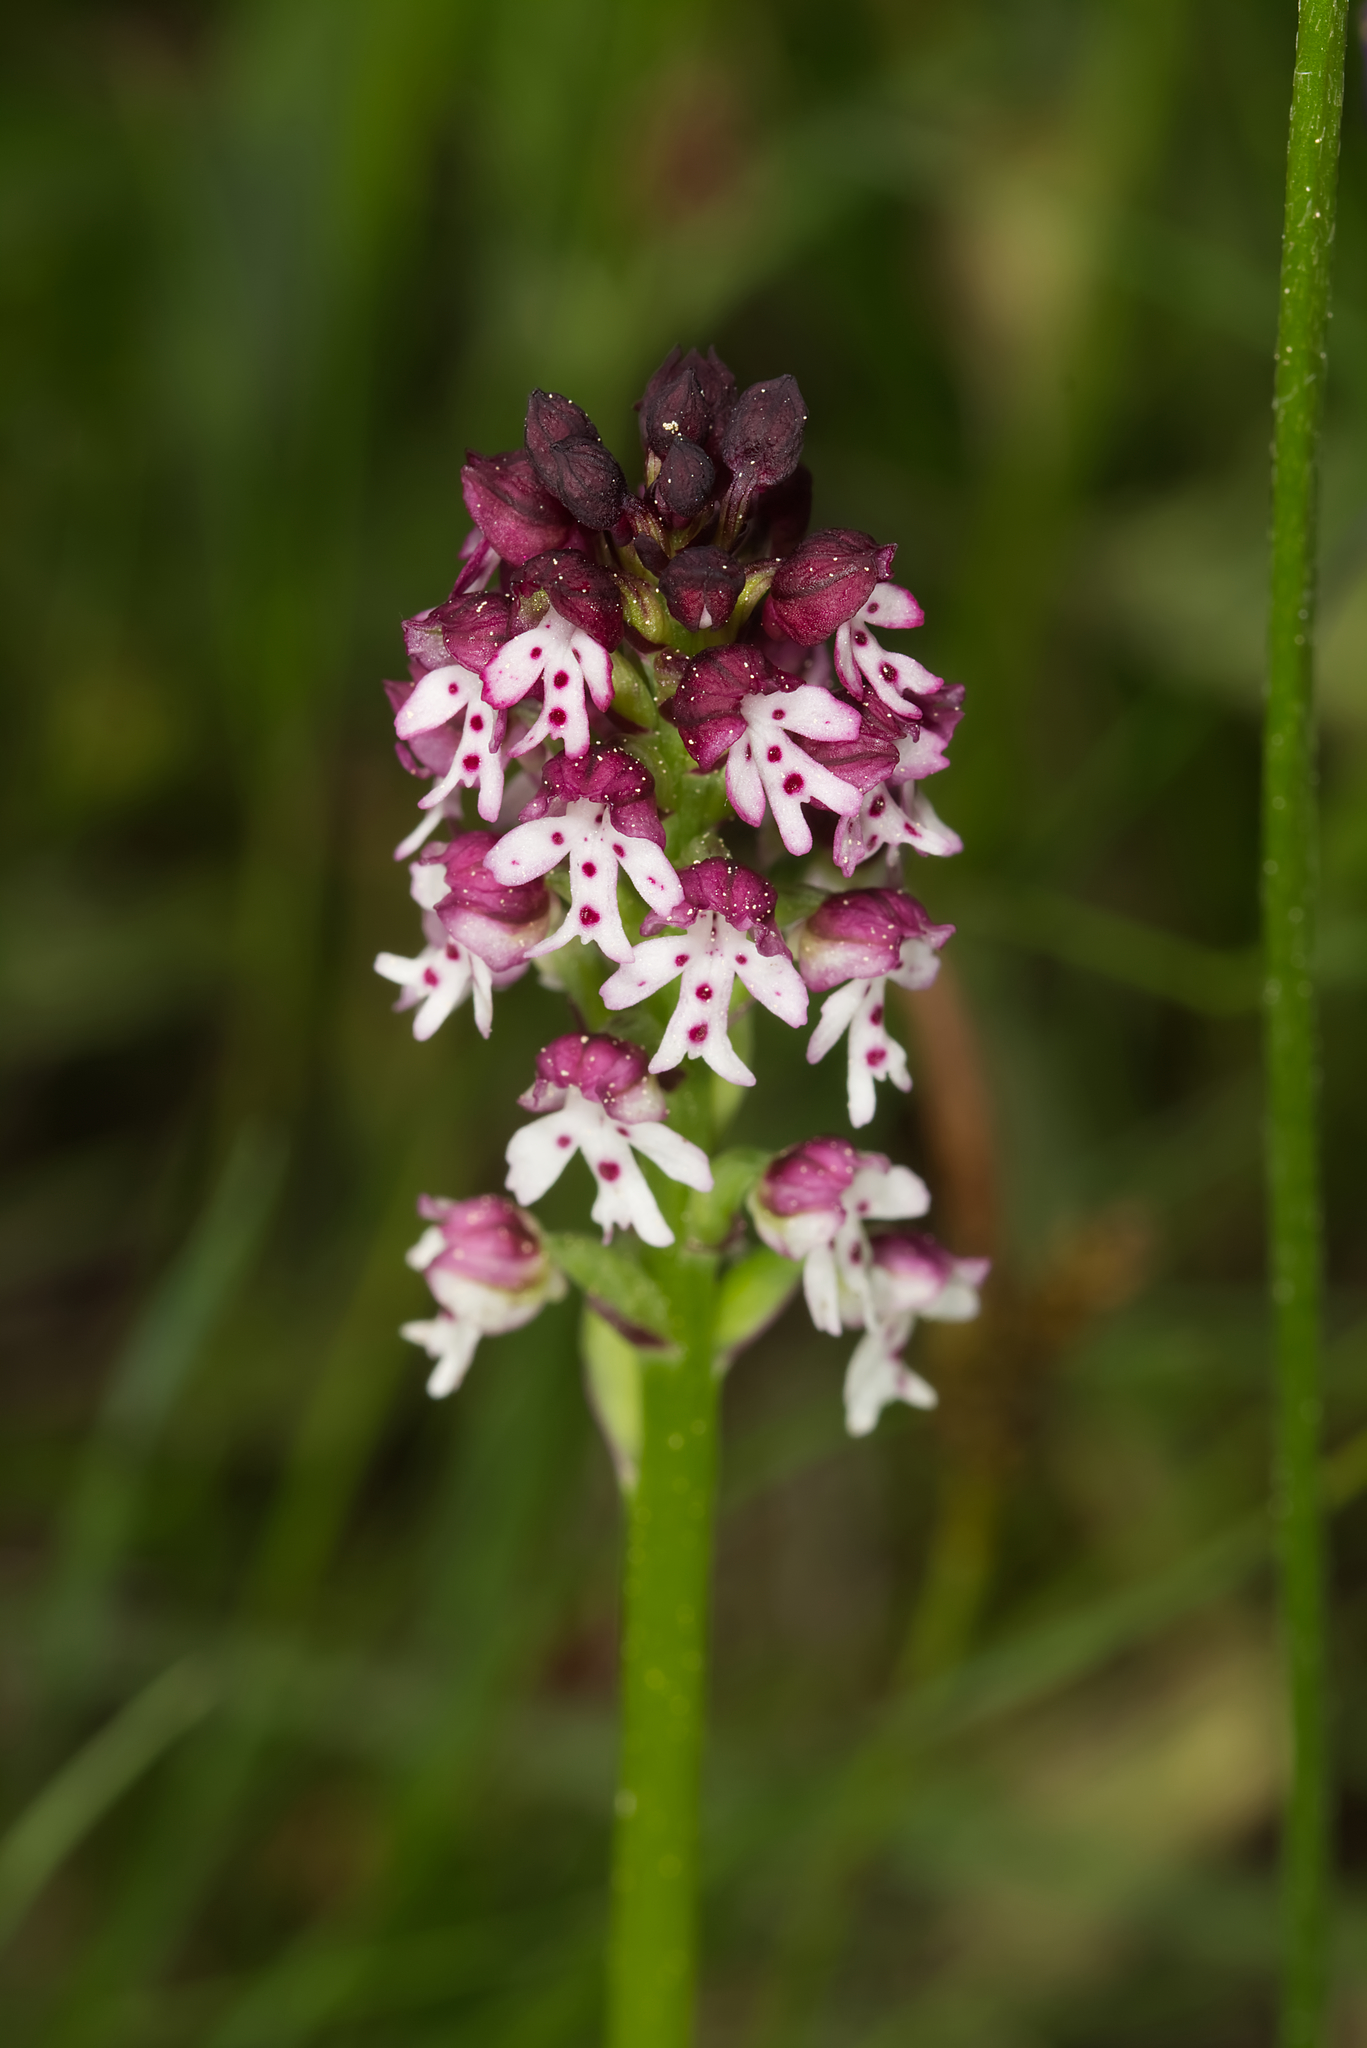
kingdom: Plantae
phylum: Tracheophyta
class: Liliopsida
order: Asparagales
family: Orchidaceae
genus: Neotinea
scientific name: Neotinea ustulata
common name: Burnt orchid
